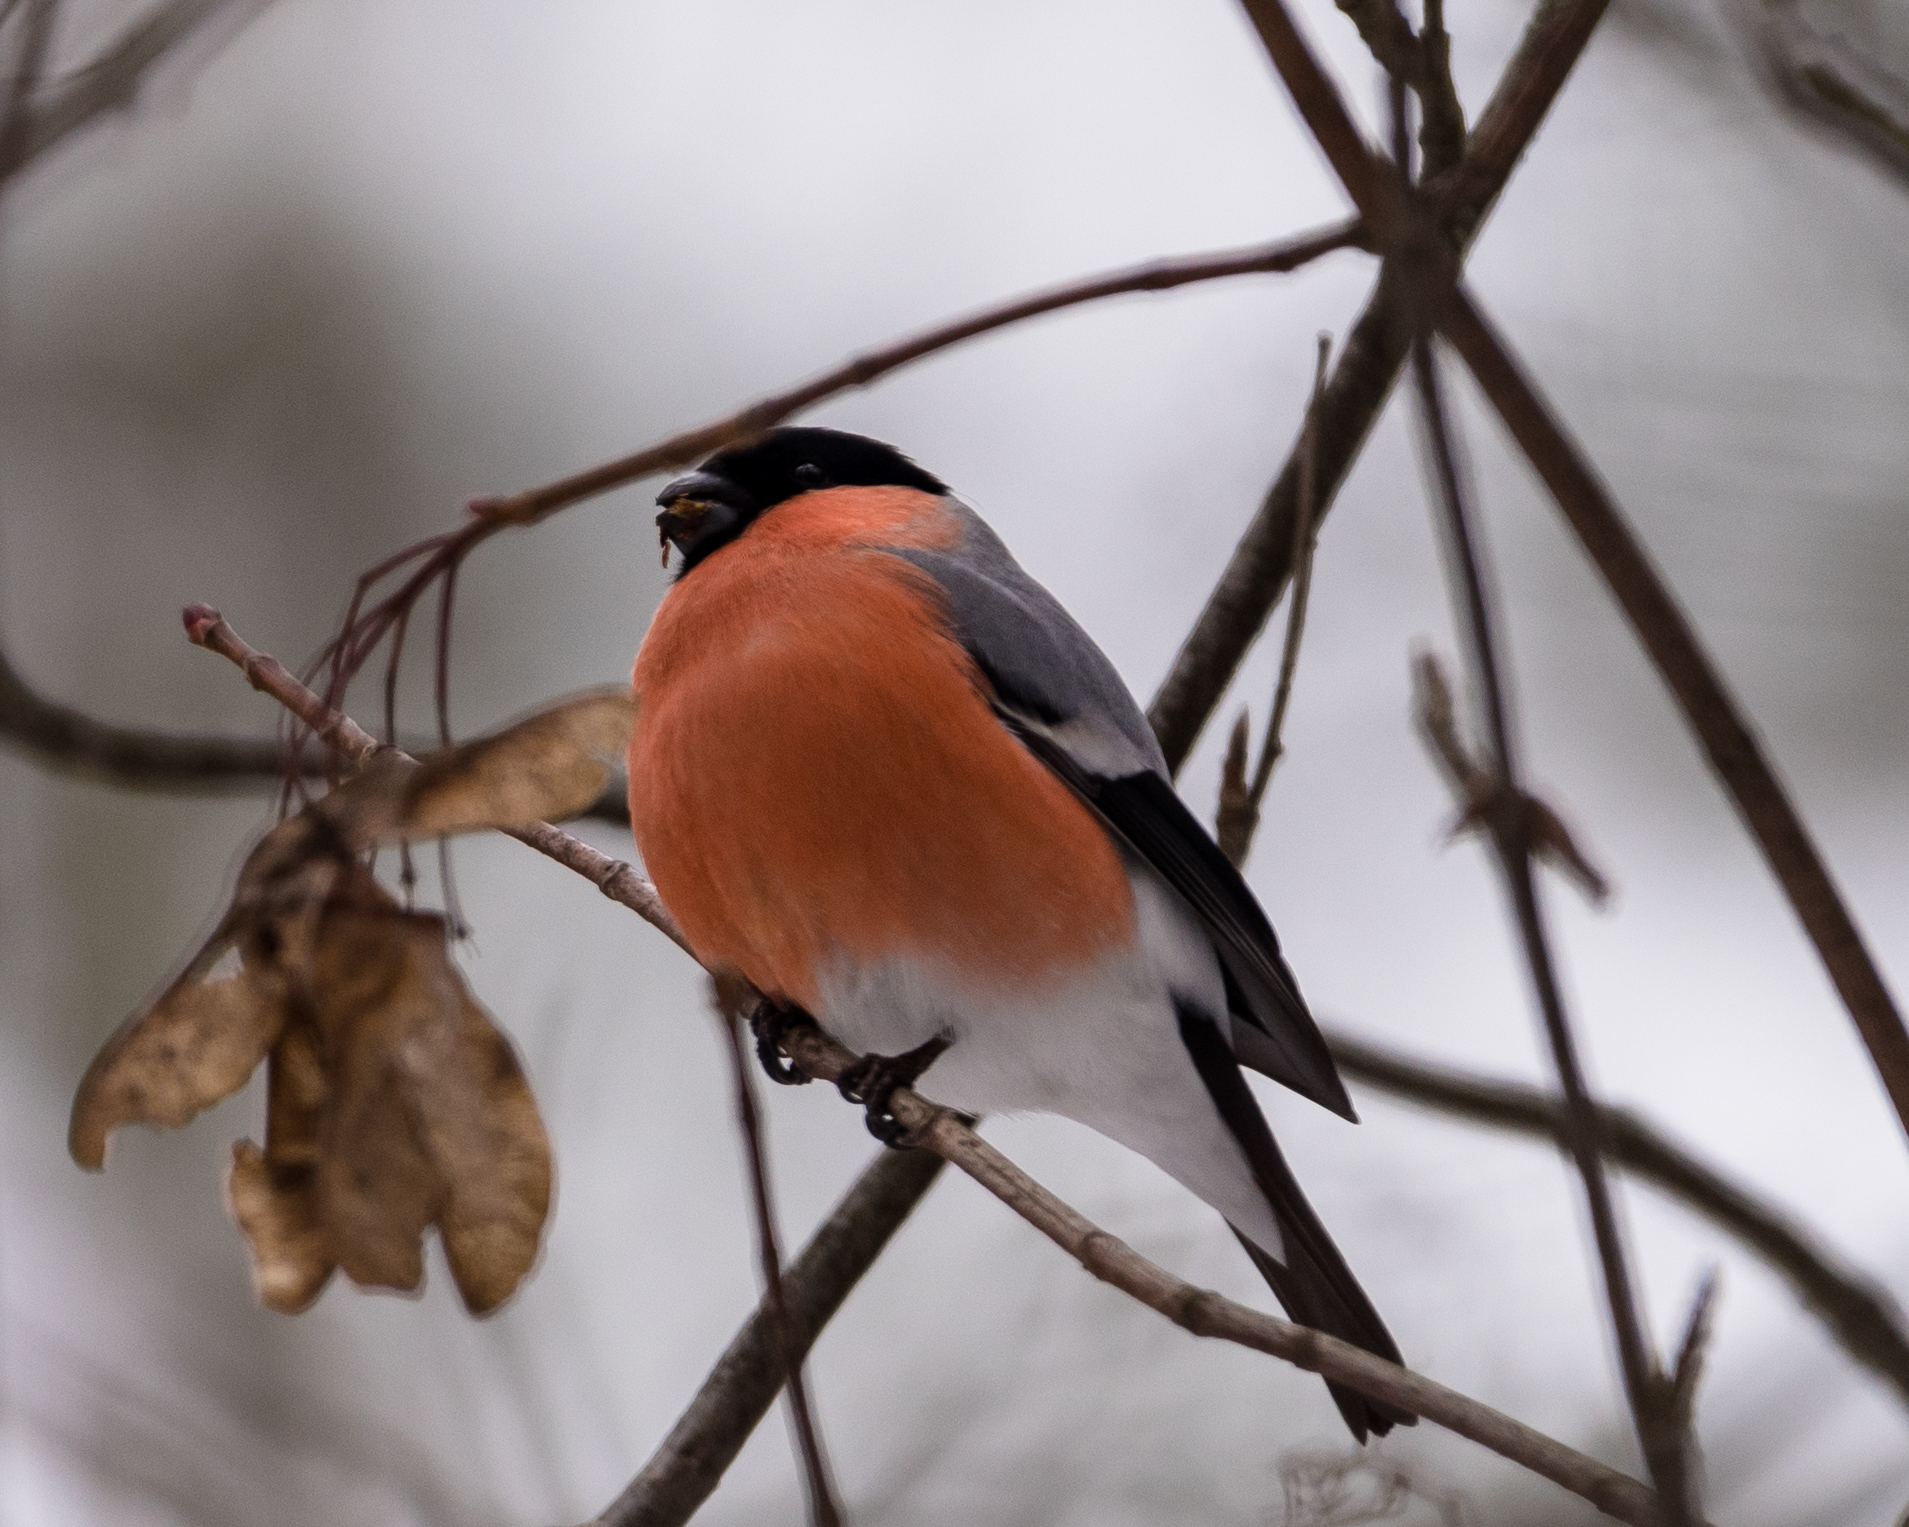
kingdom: Animalia
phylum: Chordata
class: Aves
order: Passeriformes
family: Fringillidae
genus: Pyrrhula
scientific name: Pyrrhula pyrrhula
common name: Eurasian bullfinch
